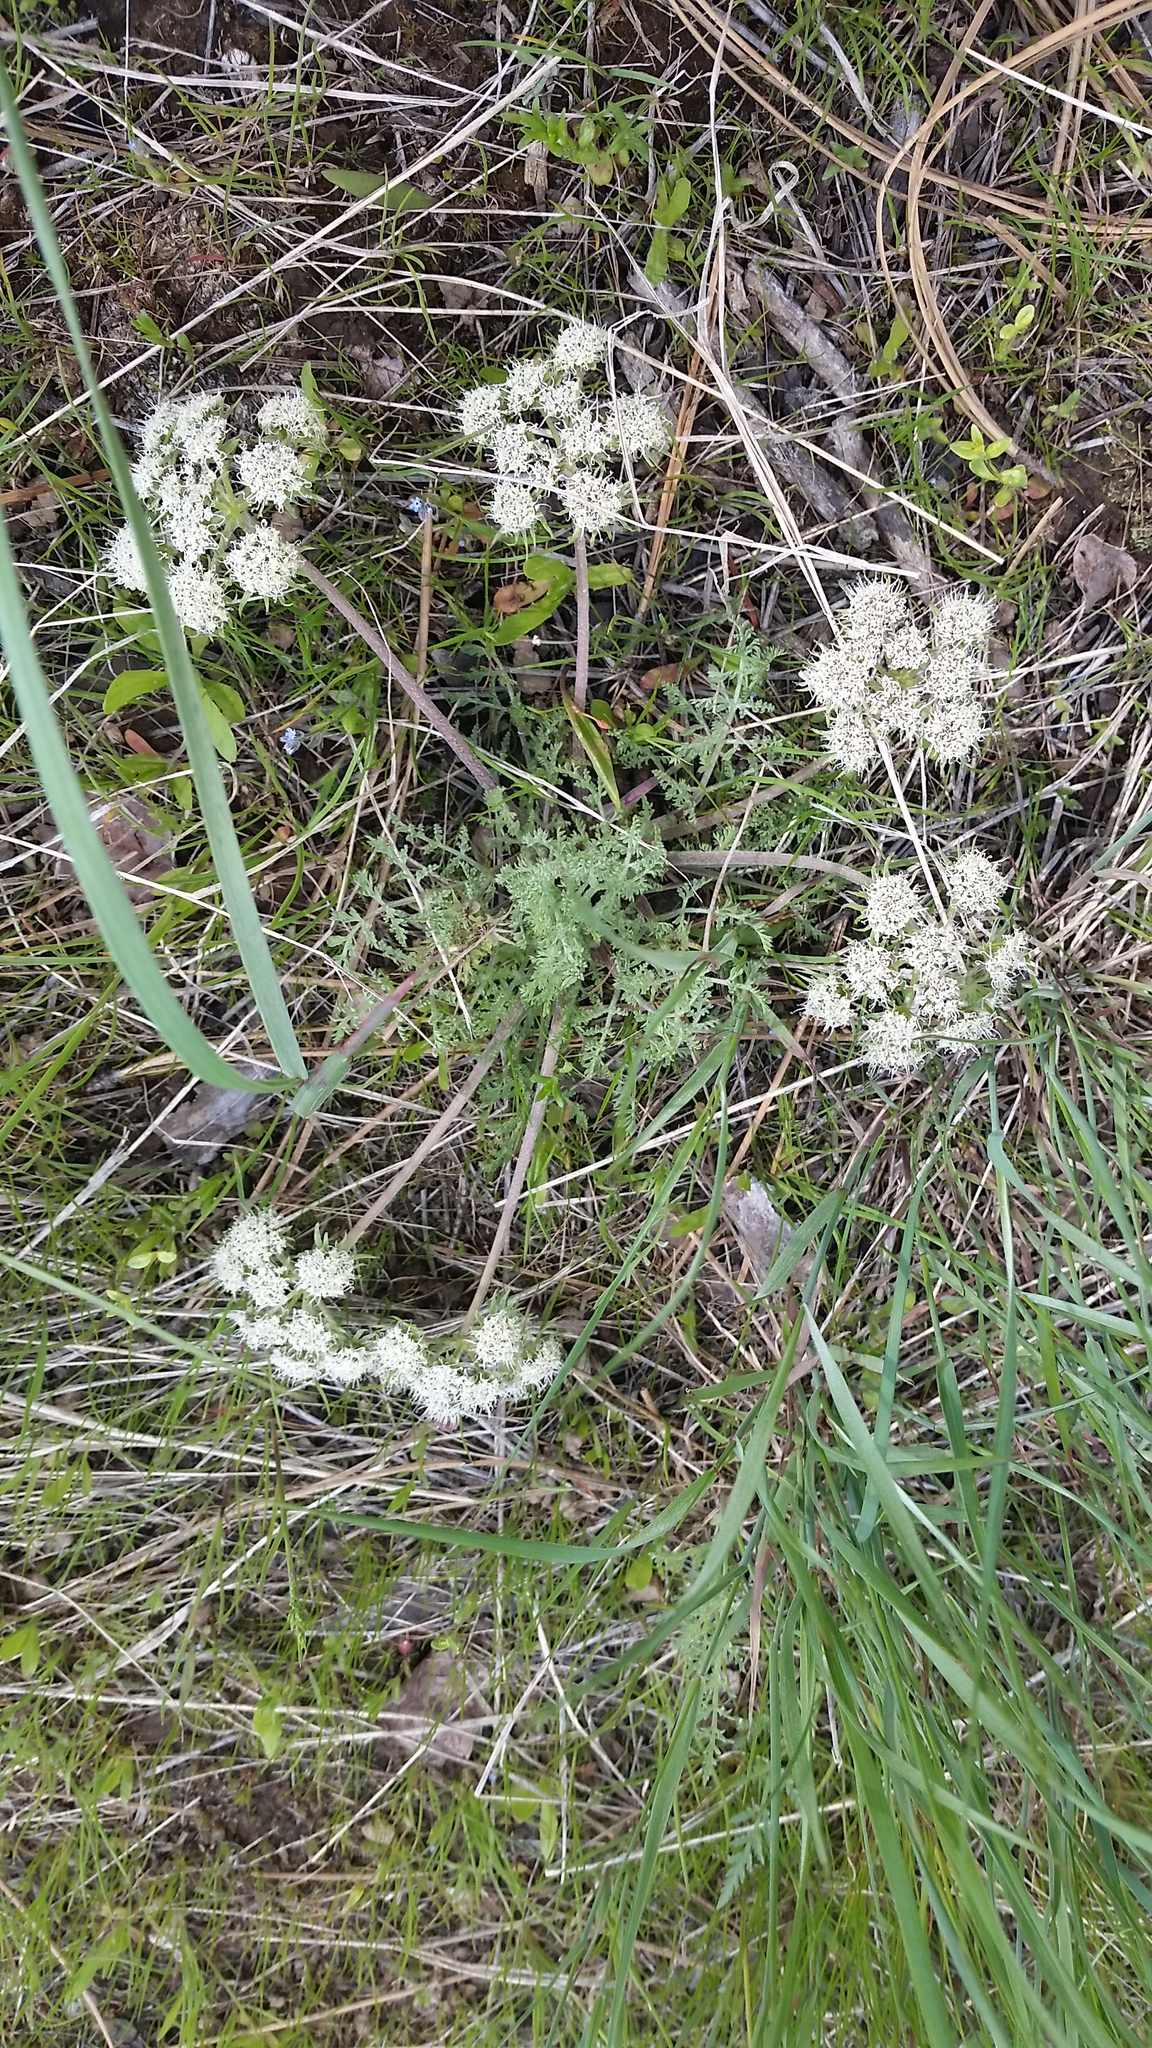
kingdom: Plantae
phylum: Tracheophyta
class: Magnoliopsida
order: Apiales
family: Apiaceae
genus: Lomatium
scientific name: Lomatium macrocarpum
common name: Big-seed biscuitroot
